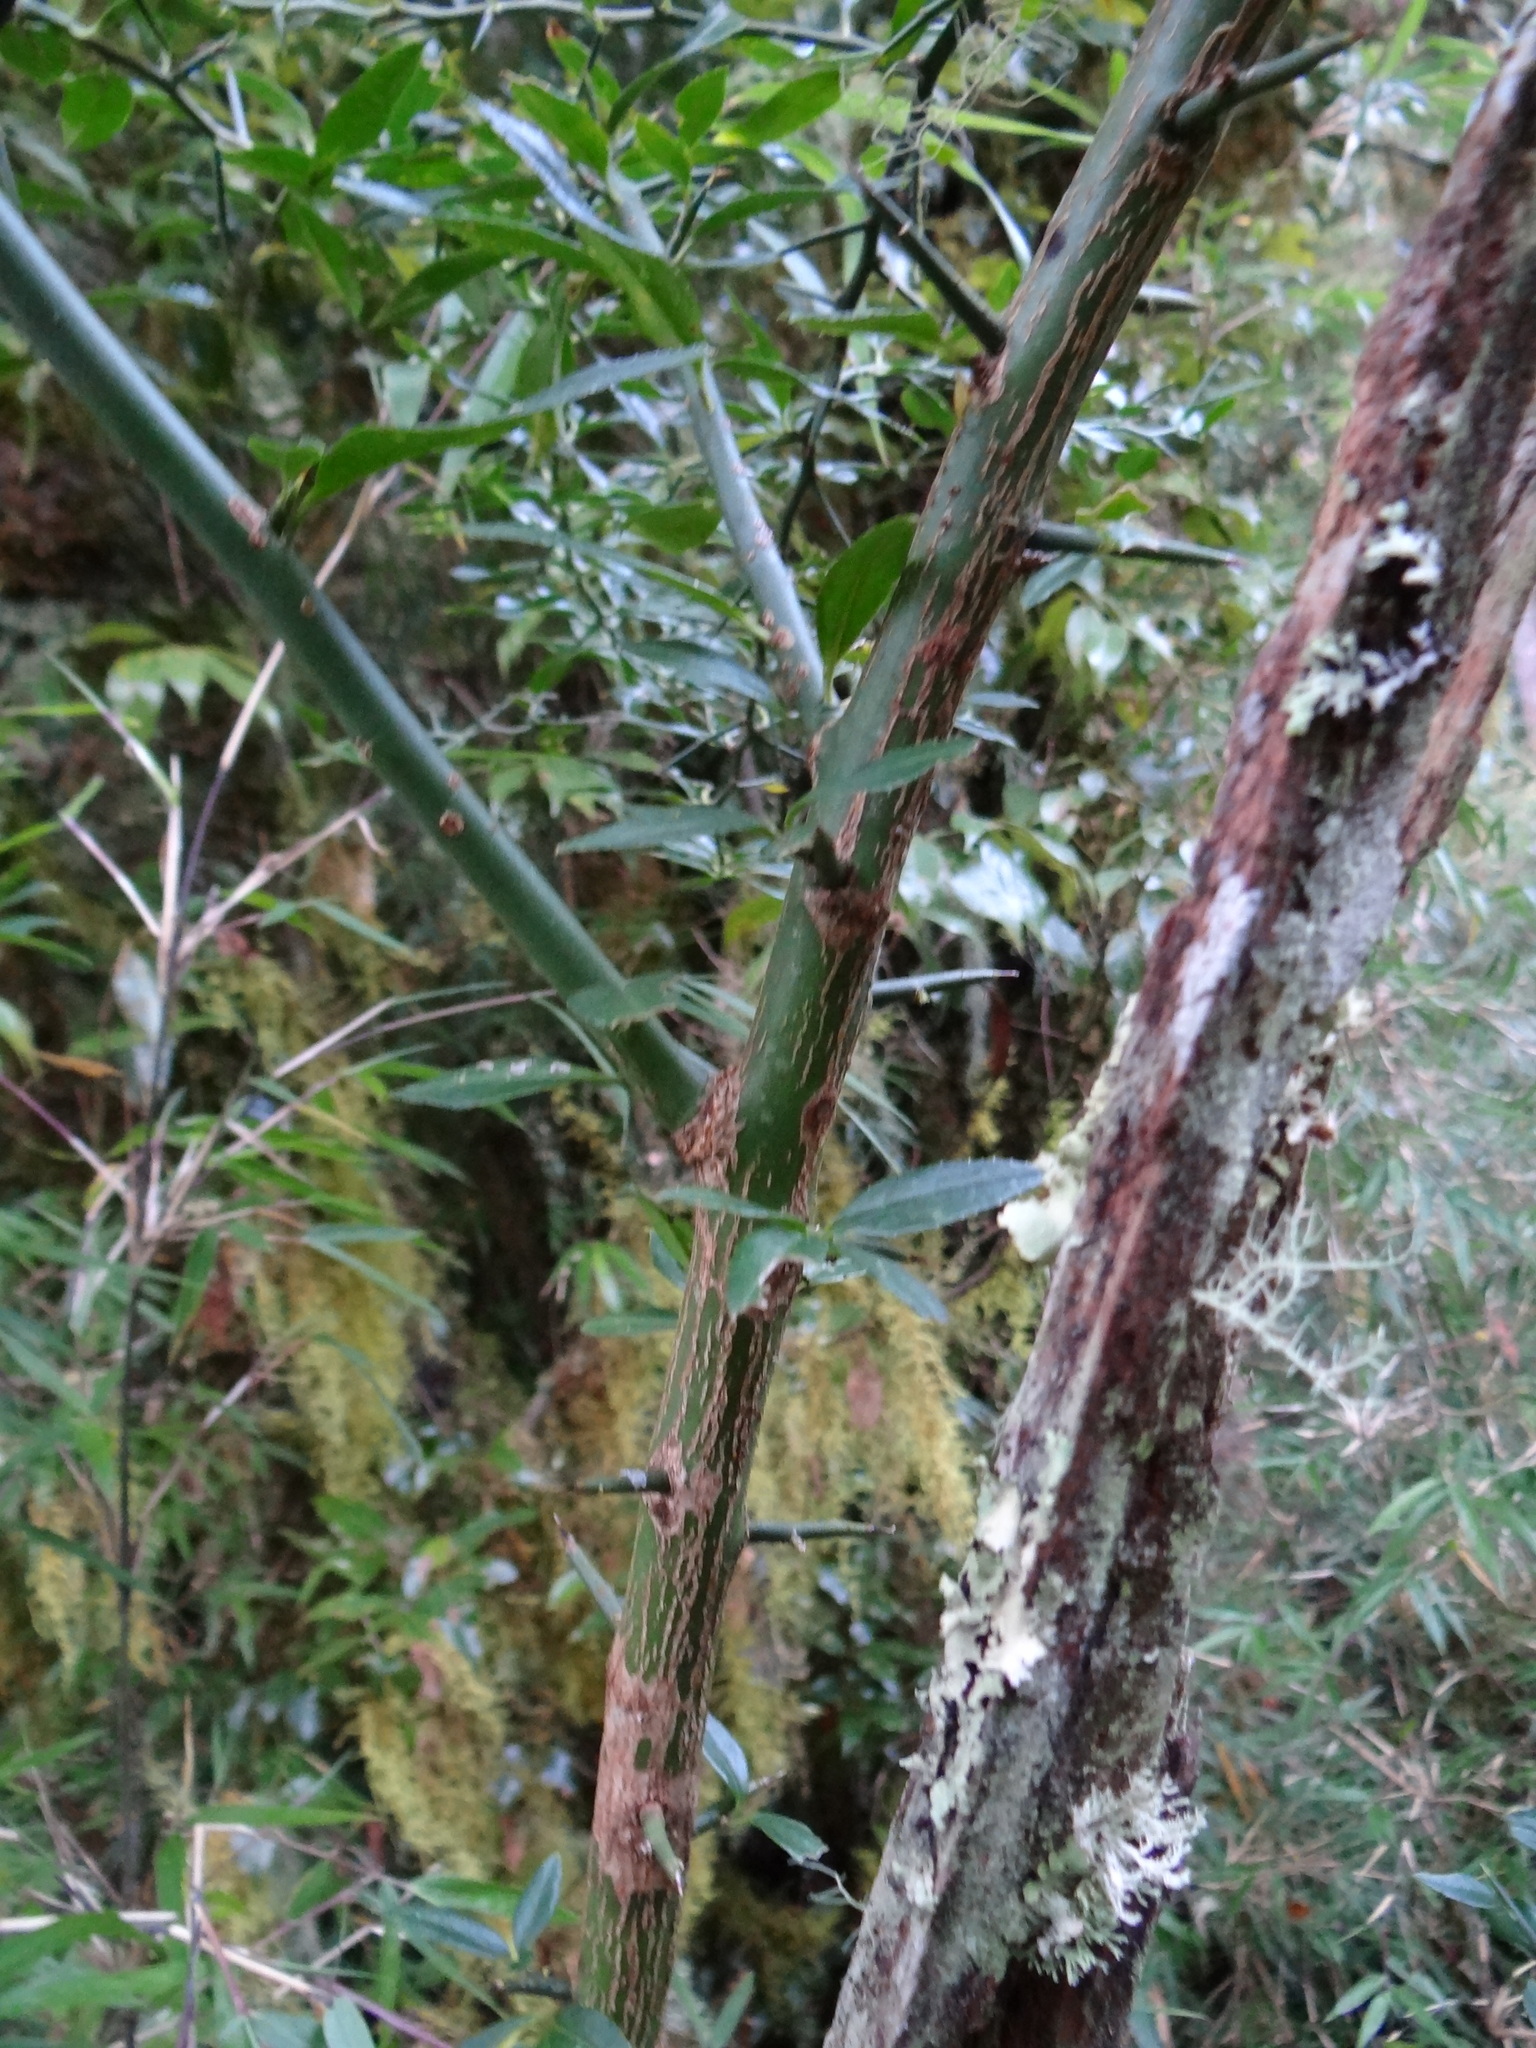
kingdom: Plantae
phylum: Tracheophyta
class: Magnoliopsida
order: Rosales
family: Rosaceae
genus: Prinsepia
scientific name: Prinsepia scandens
